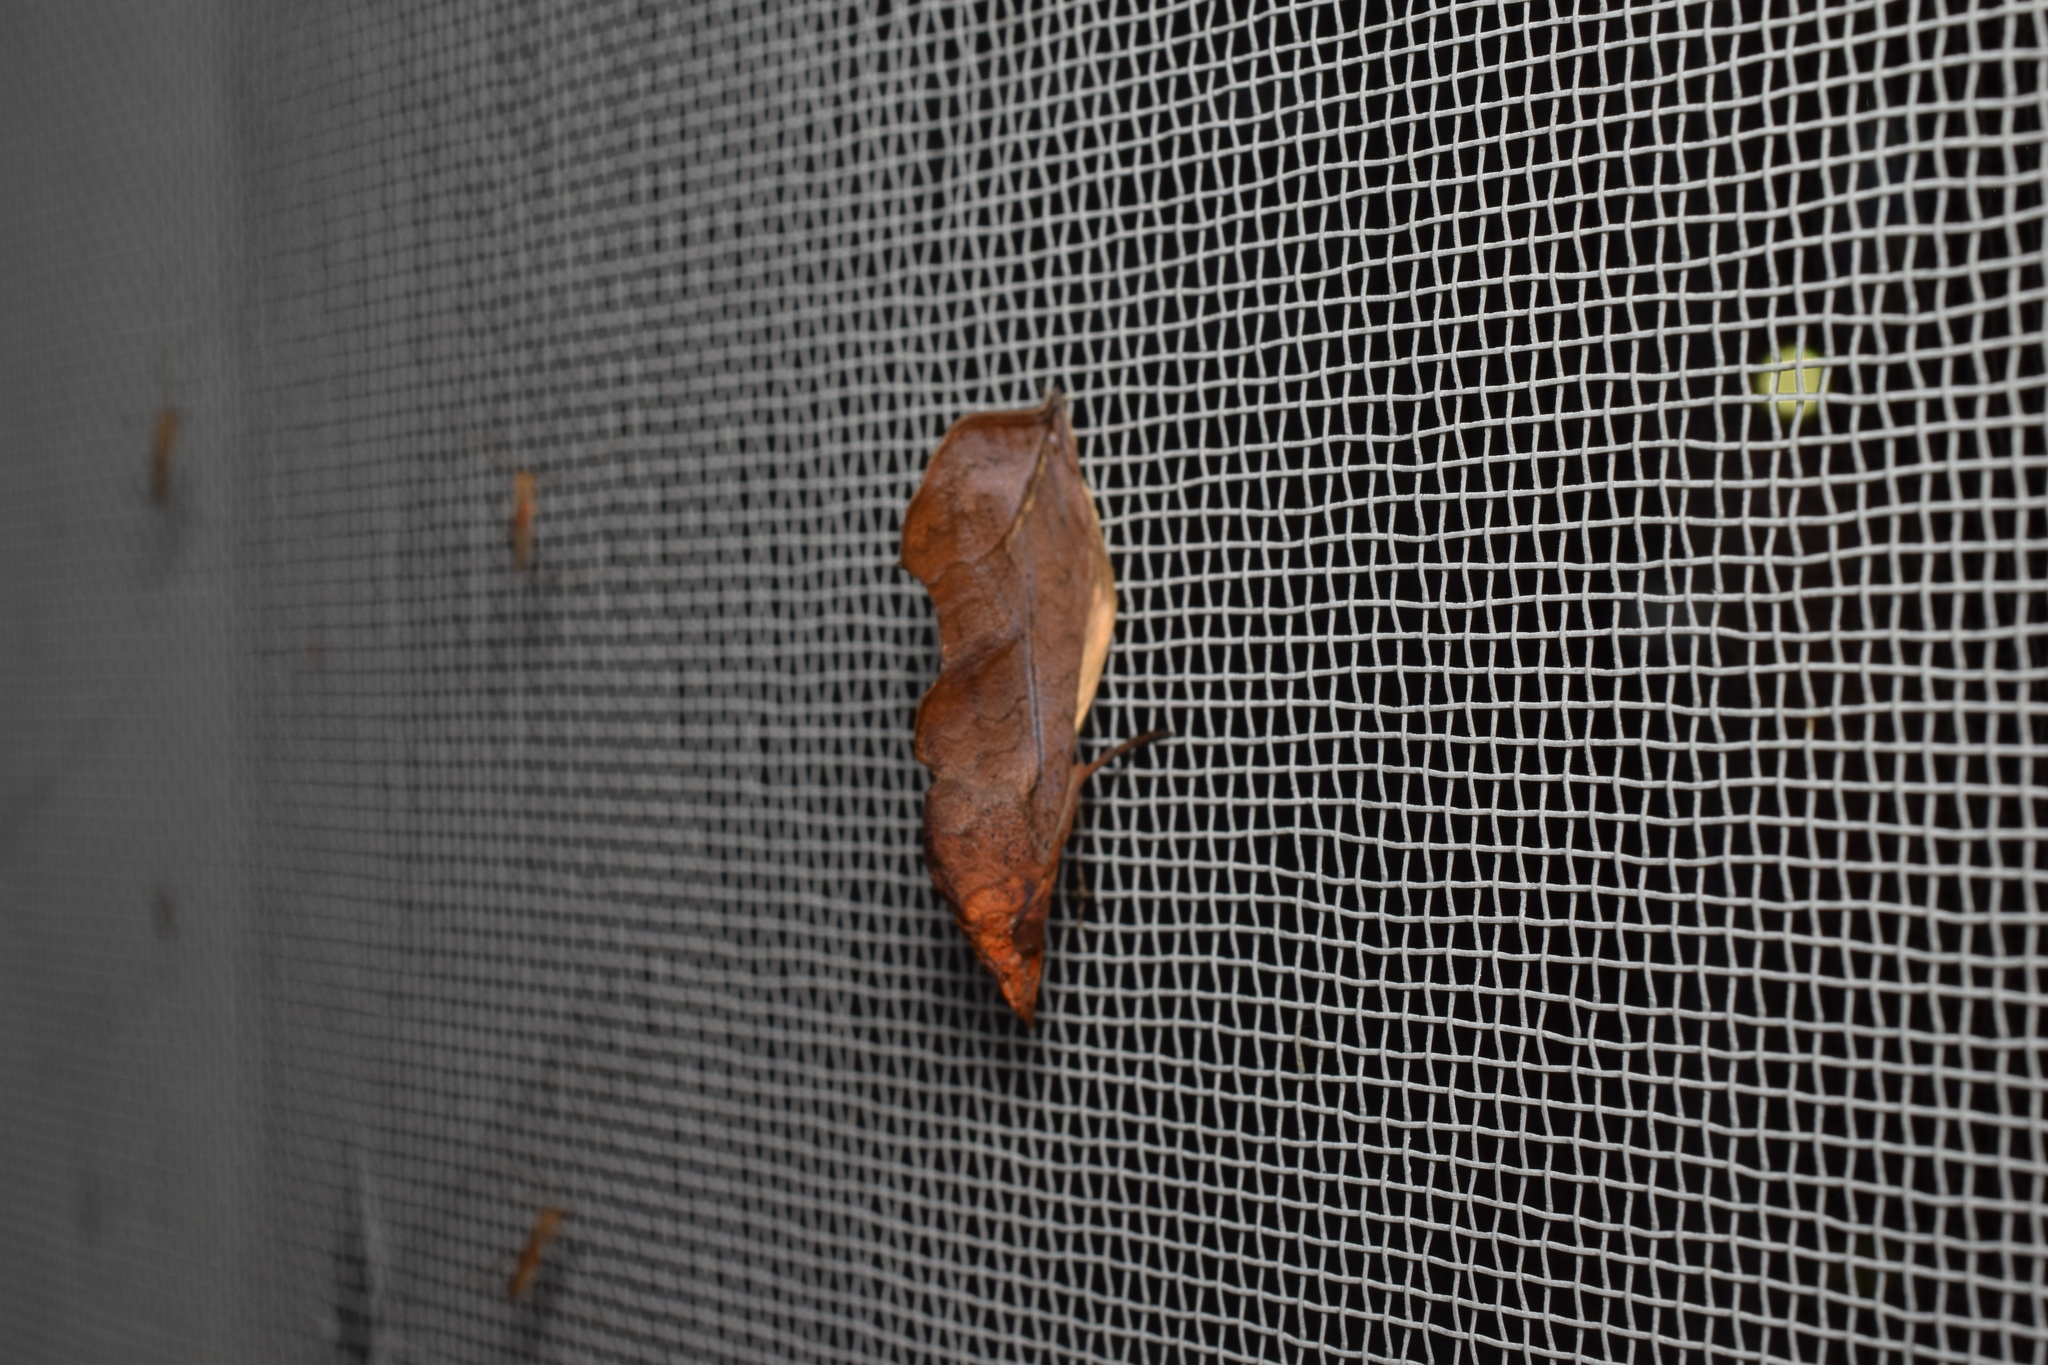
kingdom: Animalia
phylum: Arthropoda
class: Insecta
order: Lepidoptera
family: Erebidae
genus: Oraesia
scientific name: Oraesia excavata
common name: Moth
